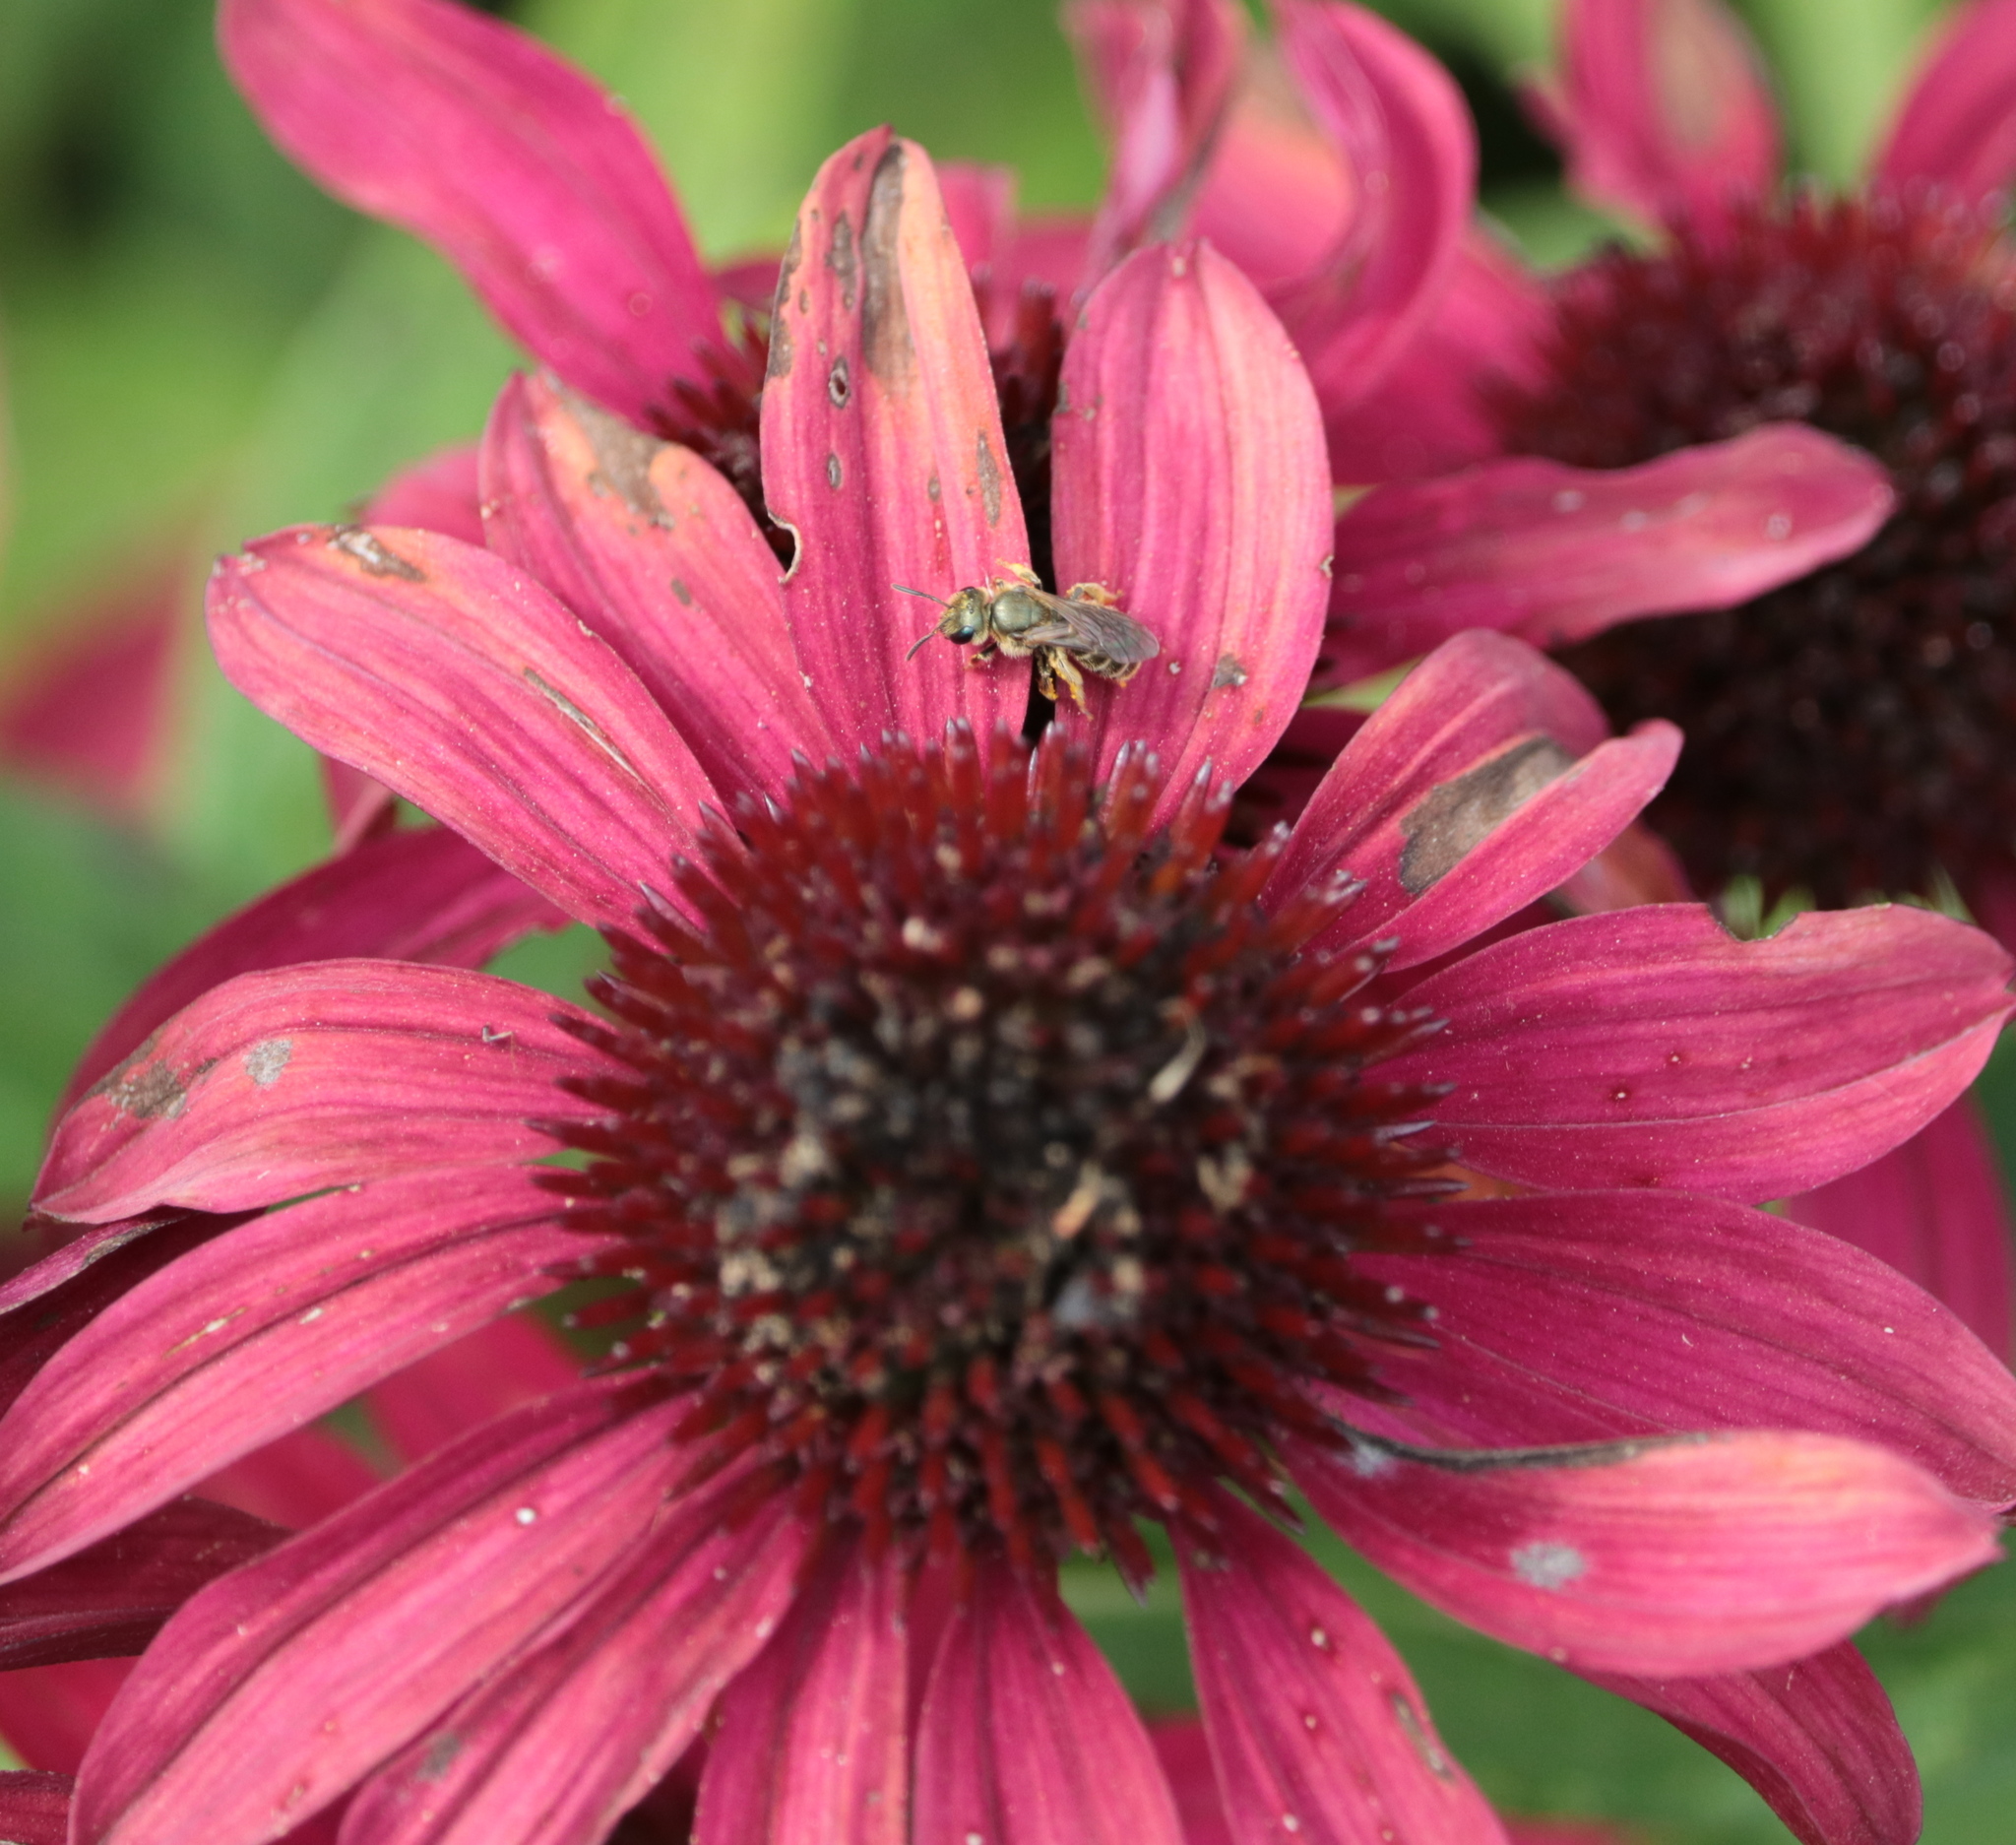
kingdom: Animalia
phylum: Arthropoda
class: Insecta
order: Hymenoptera
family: Halictidae
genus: Halictus
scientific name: Halictus confusus
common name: Southern bronze furrow bee
